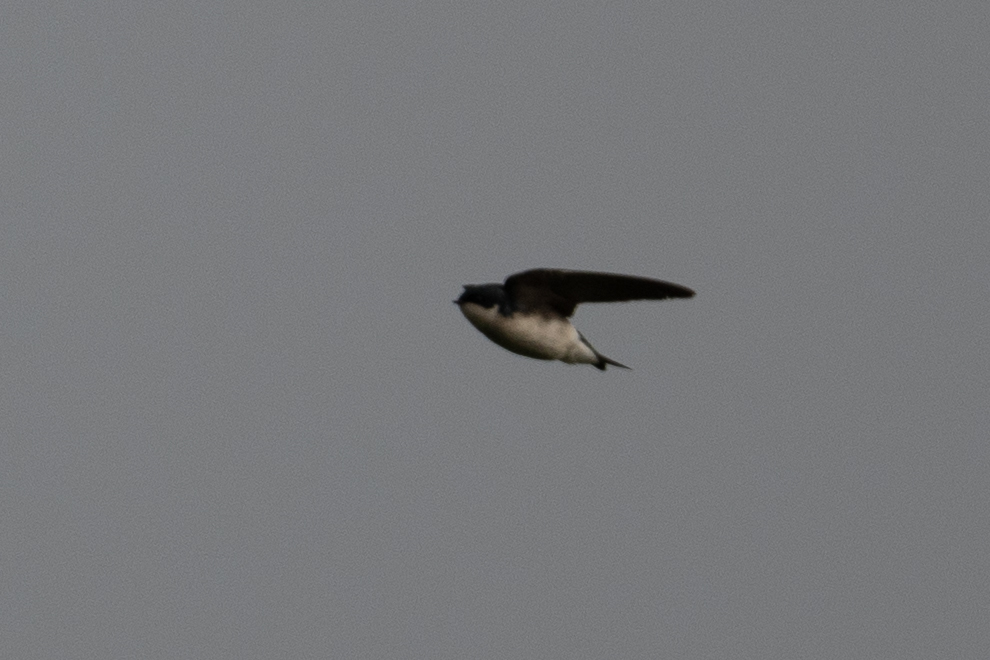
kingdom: Animalia
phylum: Chordata
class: Aves
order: Passeriformes
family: Hirundinidae
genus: Tachycineta
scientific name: Tachycineta bicolor
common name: Tree swallow
